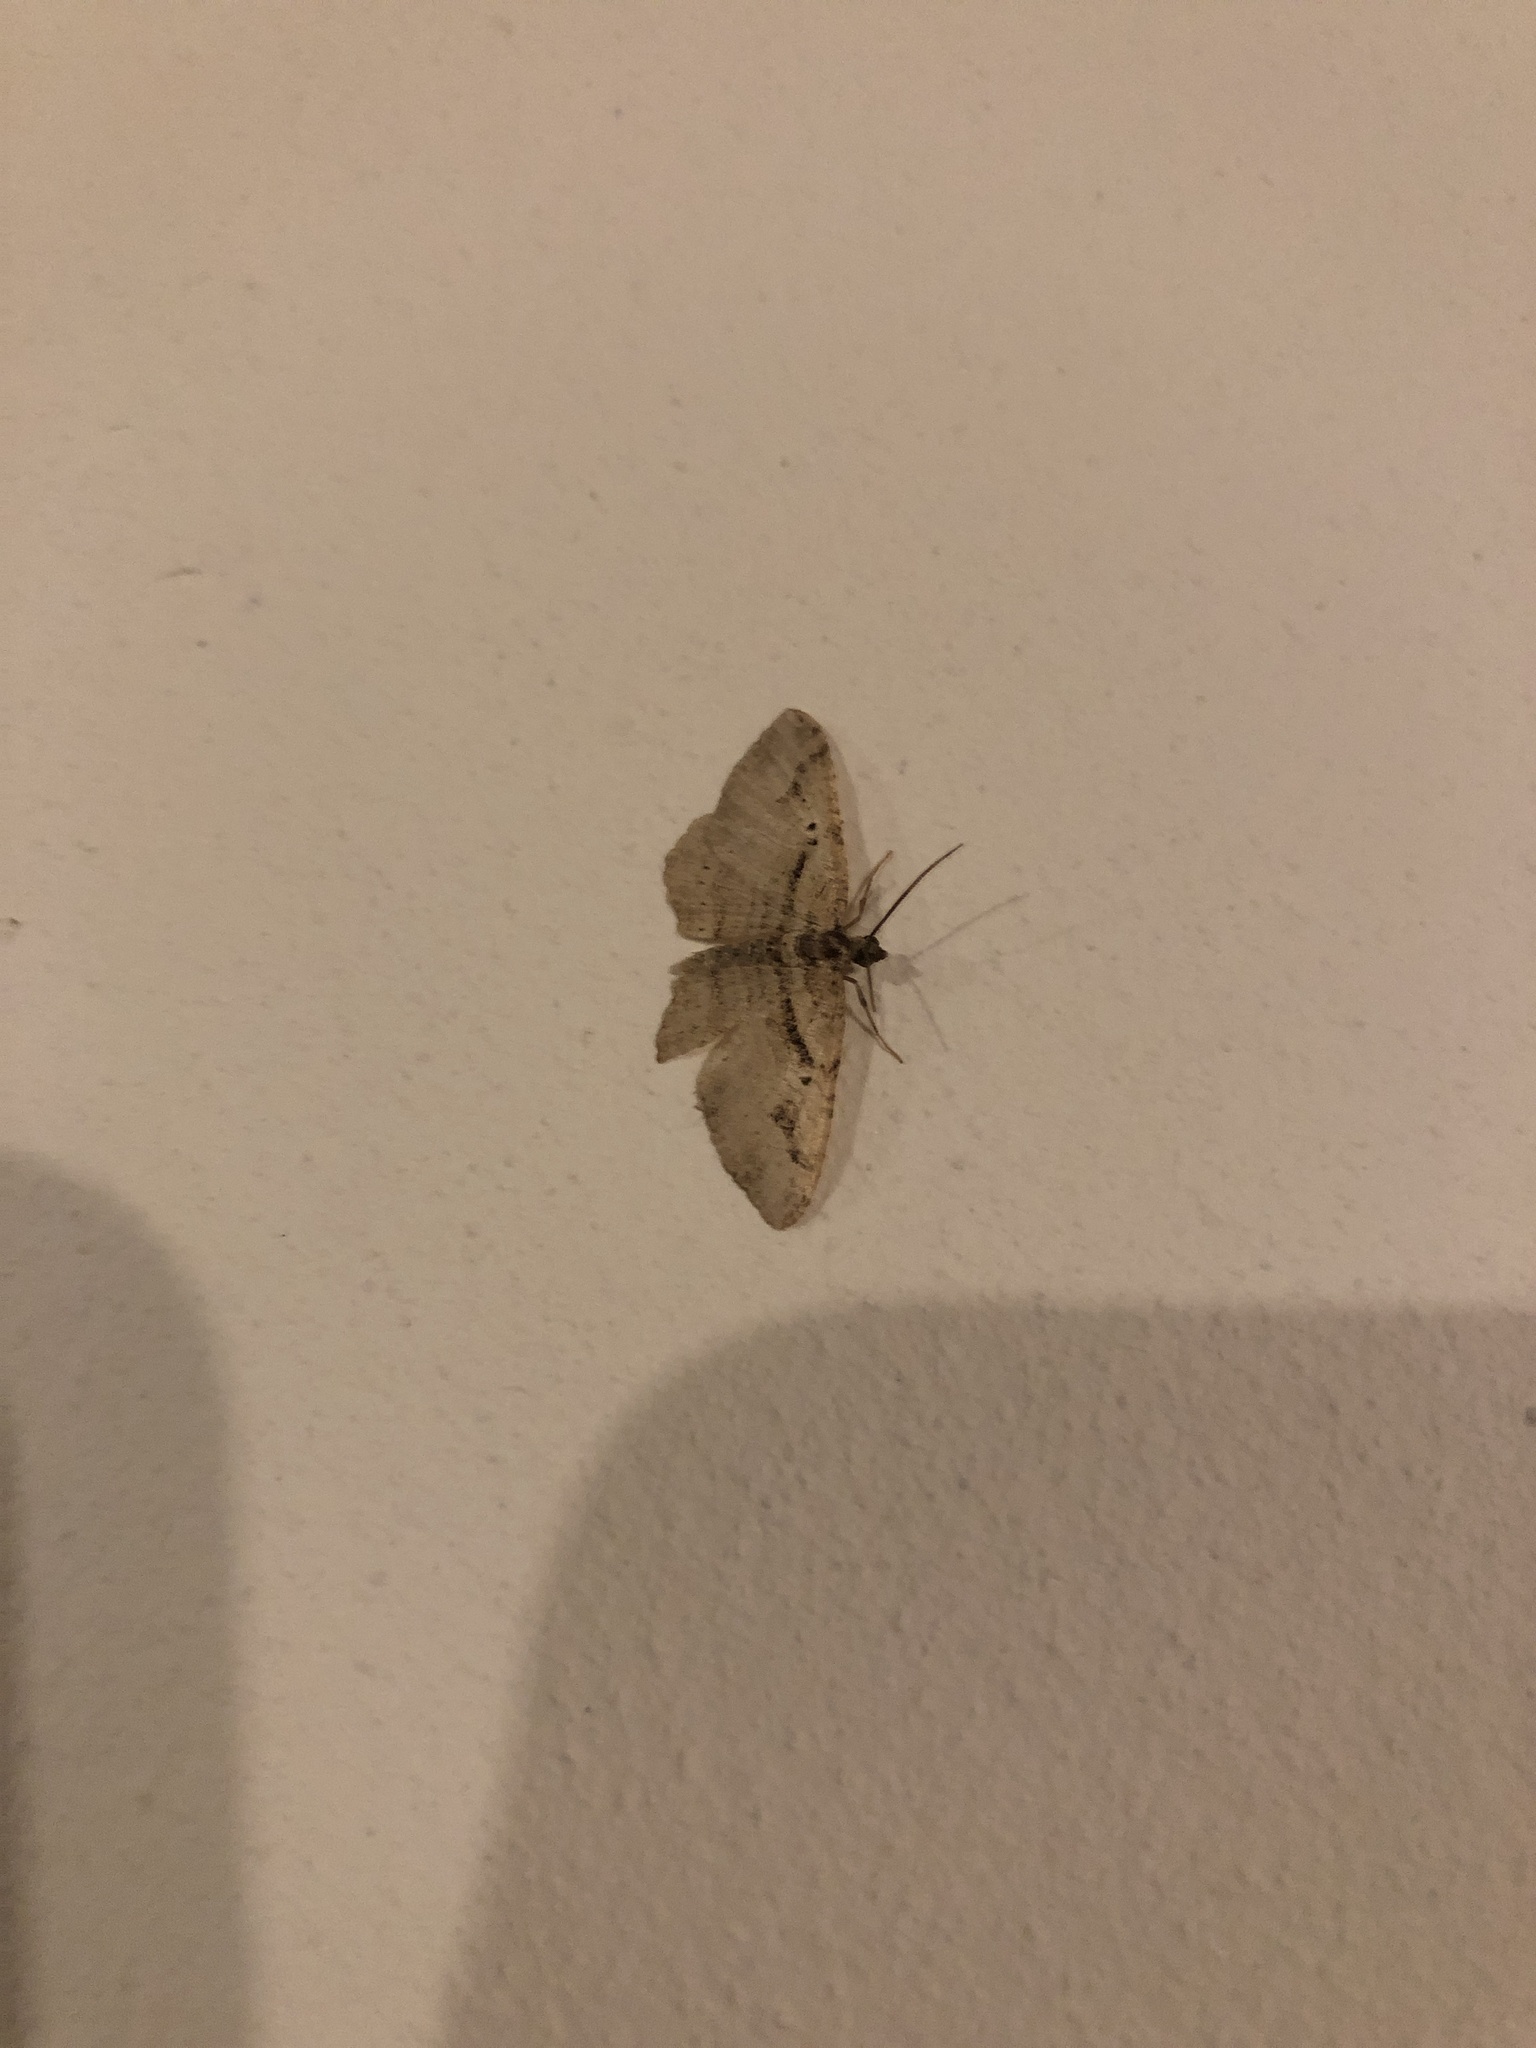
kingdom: Animalia
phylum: Arthropoda
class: Insecta
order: Lepidoptera
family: Geometridae
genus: Costaconvexa
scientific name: Costaconvexa centrostrigaria
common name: Bent-line carpet
